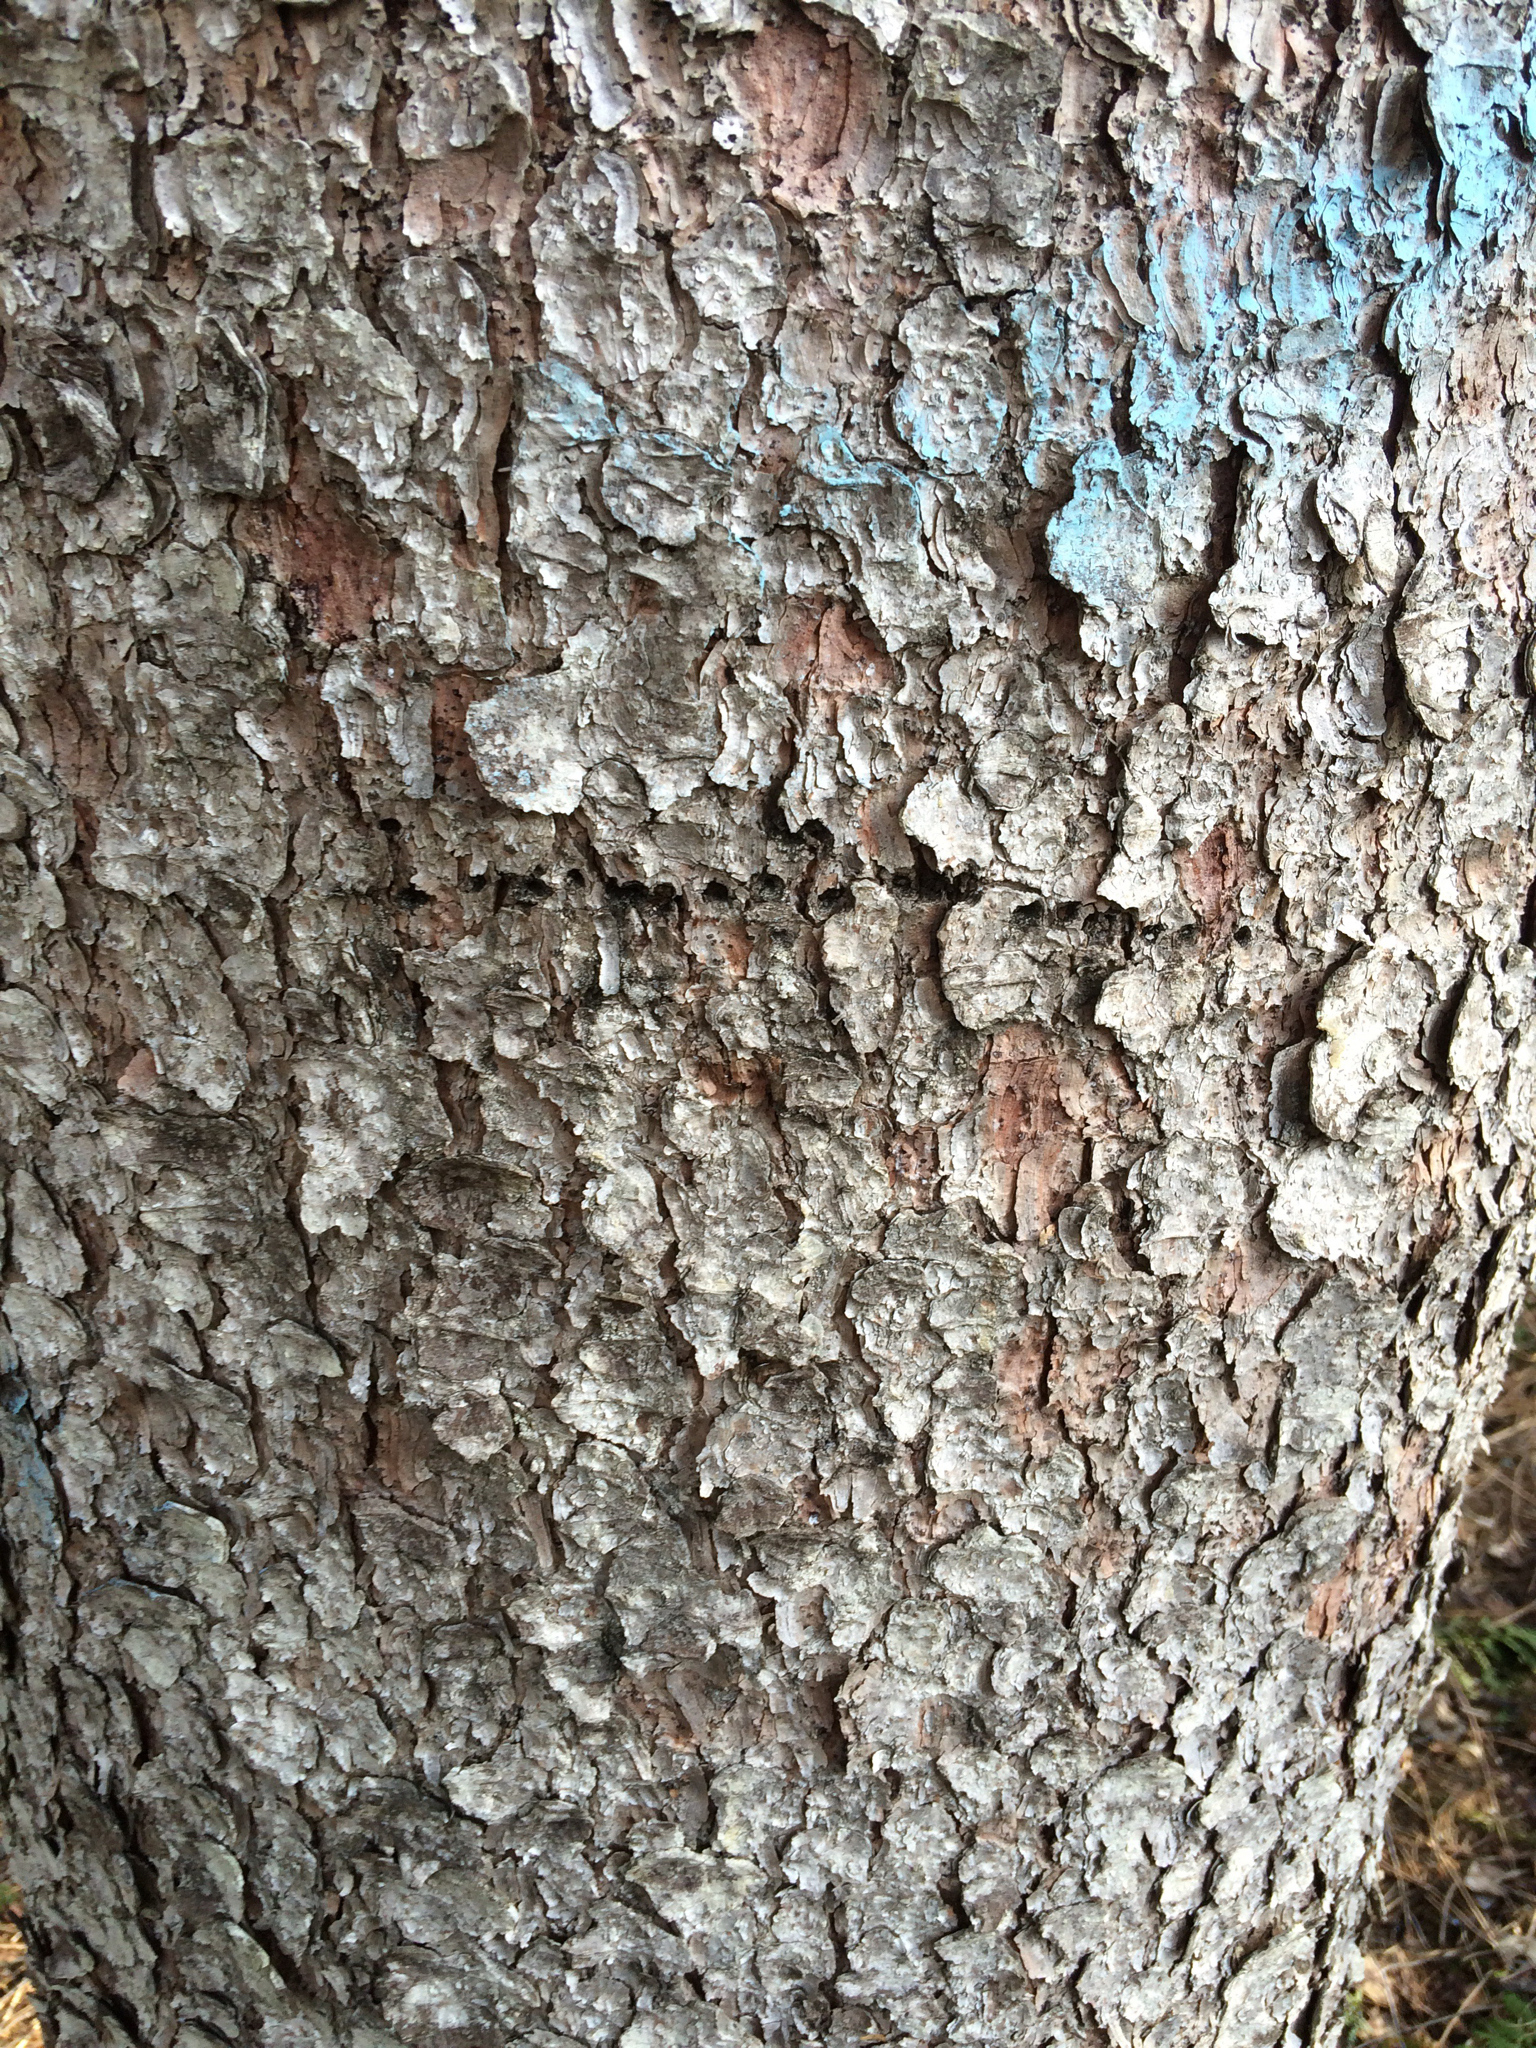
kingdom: Animalia
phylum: Chordata
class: Aves
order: Piciformes
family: Picidae
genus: Sphyrapicus
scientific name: Sphyrapicus varius
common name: Yellow-bellied sapsucker
